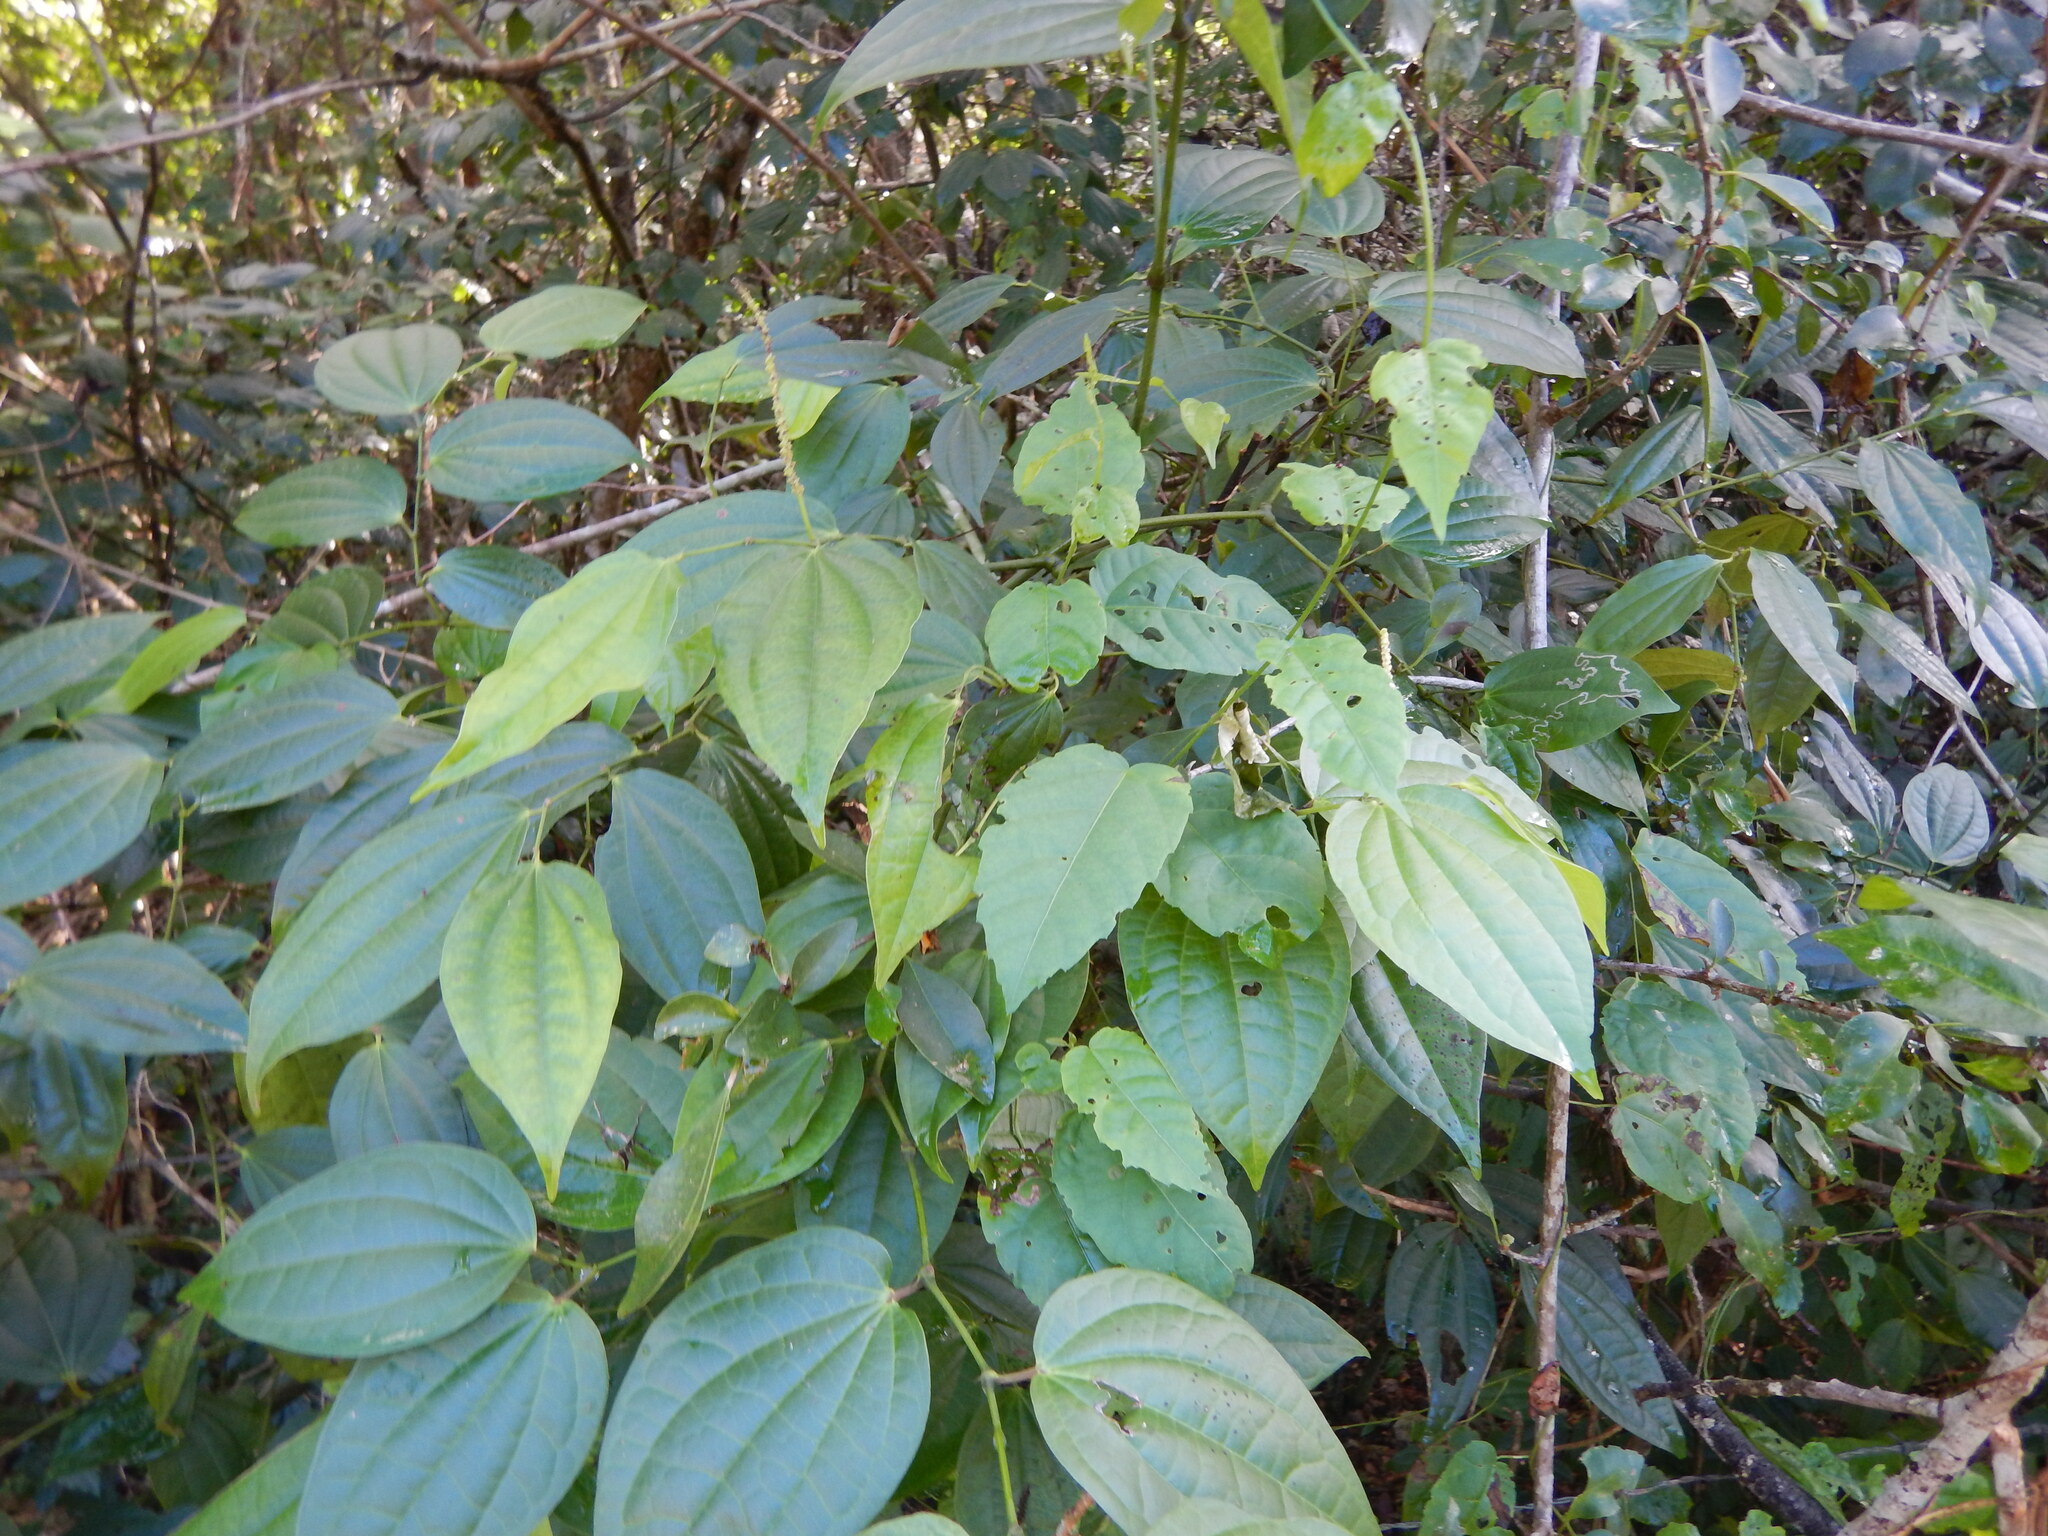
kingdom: Plantae
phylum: Tracheophyta
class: Magnoliopsida
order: Piperales
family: Piperaceae
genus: Piper
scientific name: Piper amalago
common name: Pepper-elder
